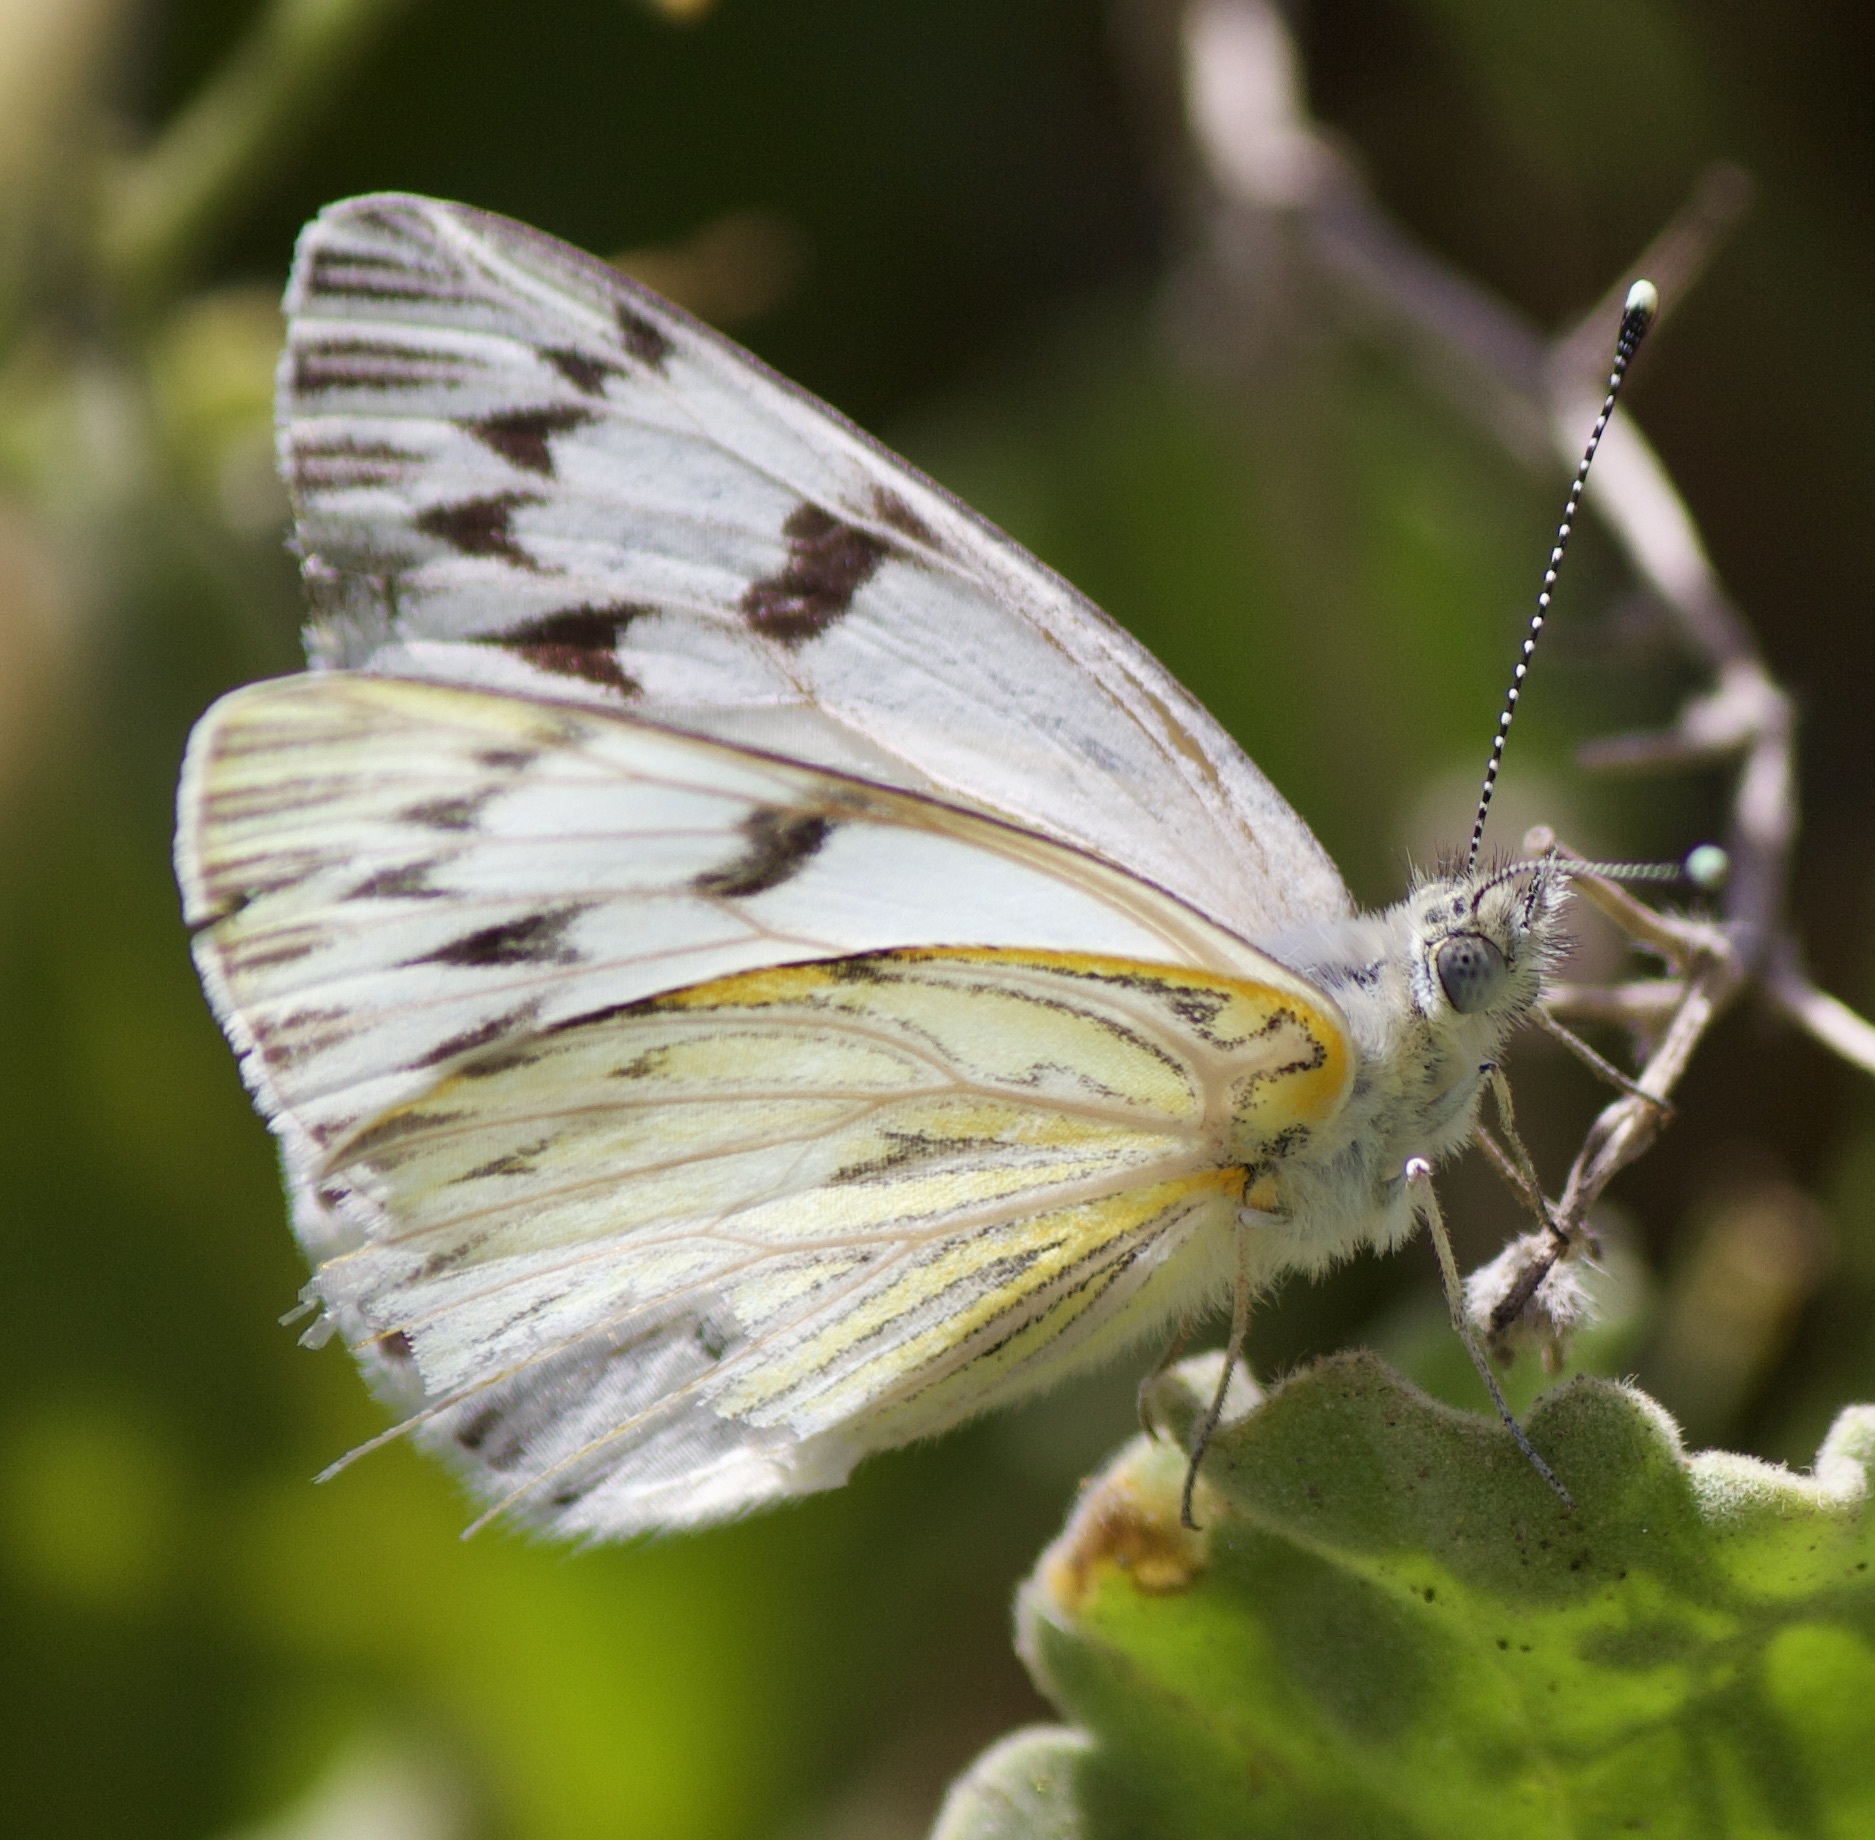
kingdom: Animalia
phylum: Arthropoda
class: Insecta
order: Lepidoptera
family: Pieridae
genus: Tatochila
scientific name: Tatochila mercedis
